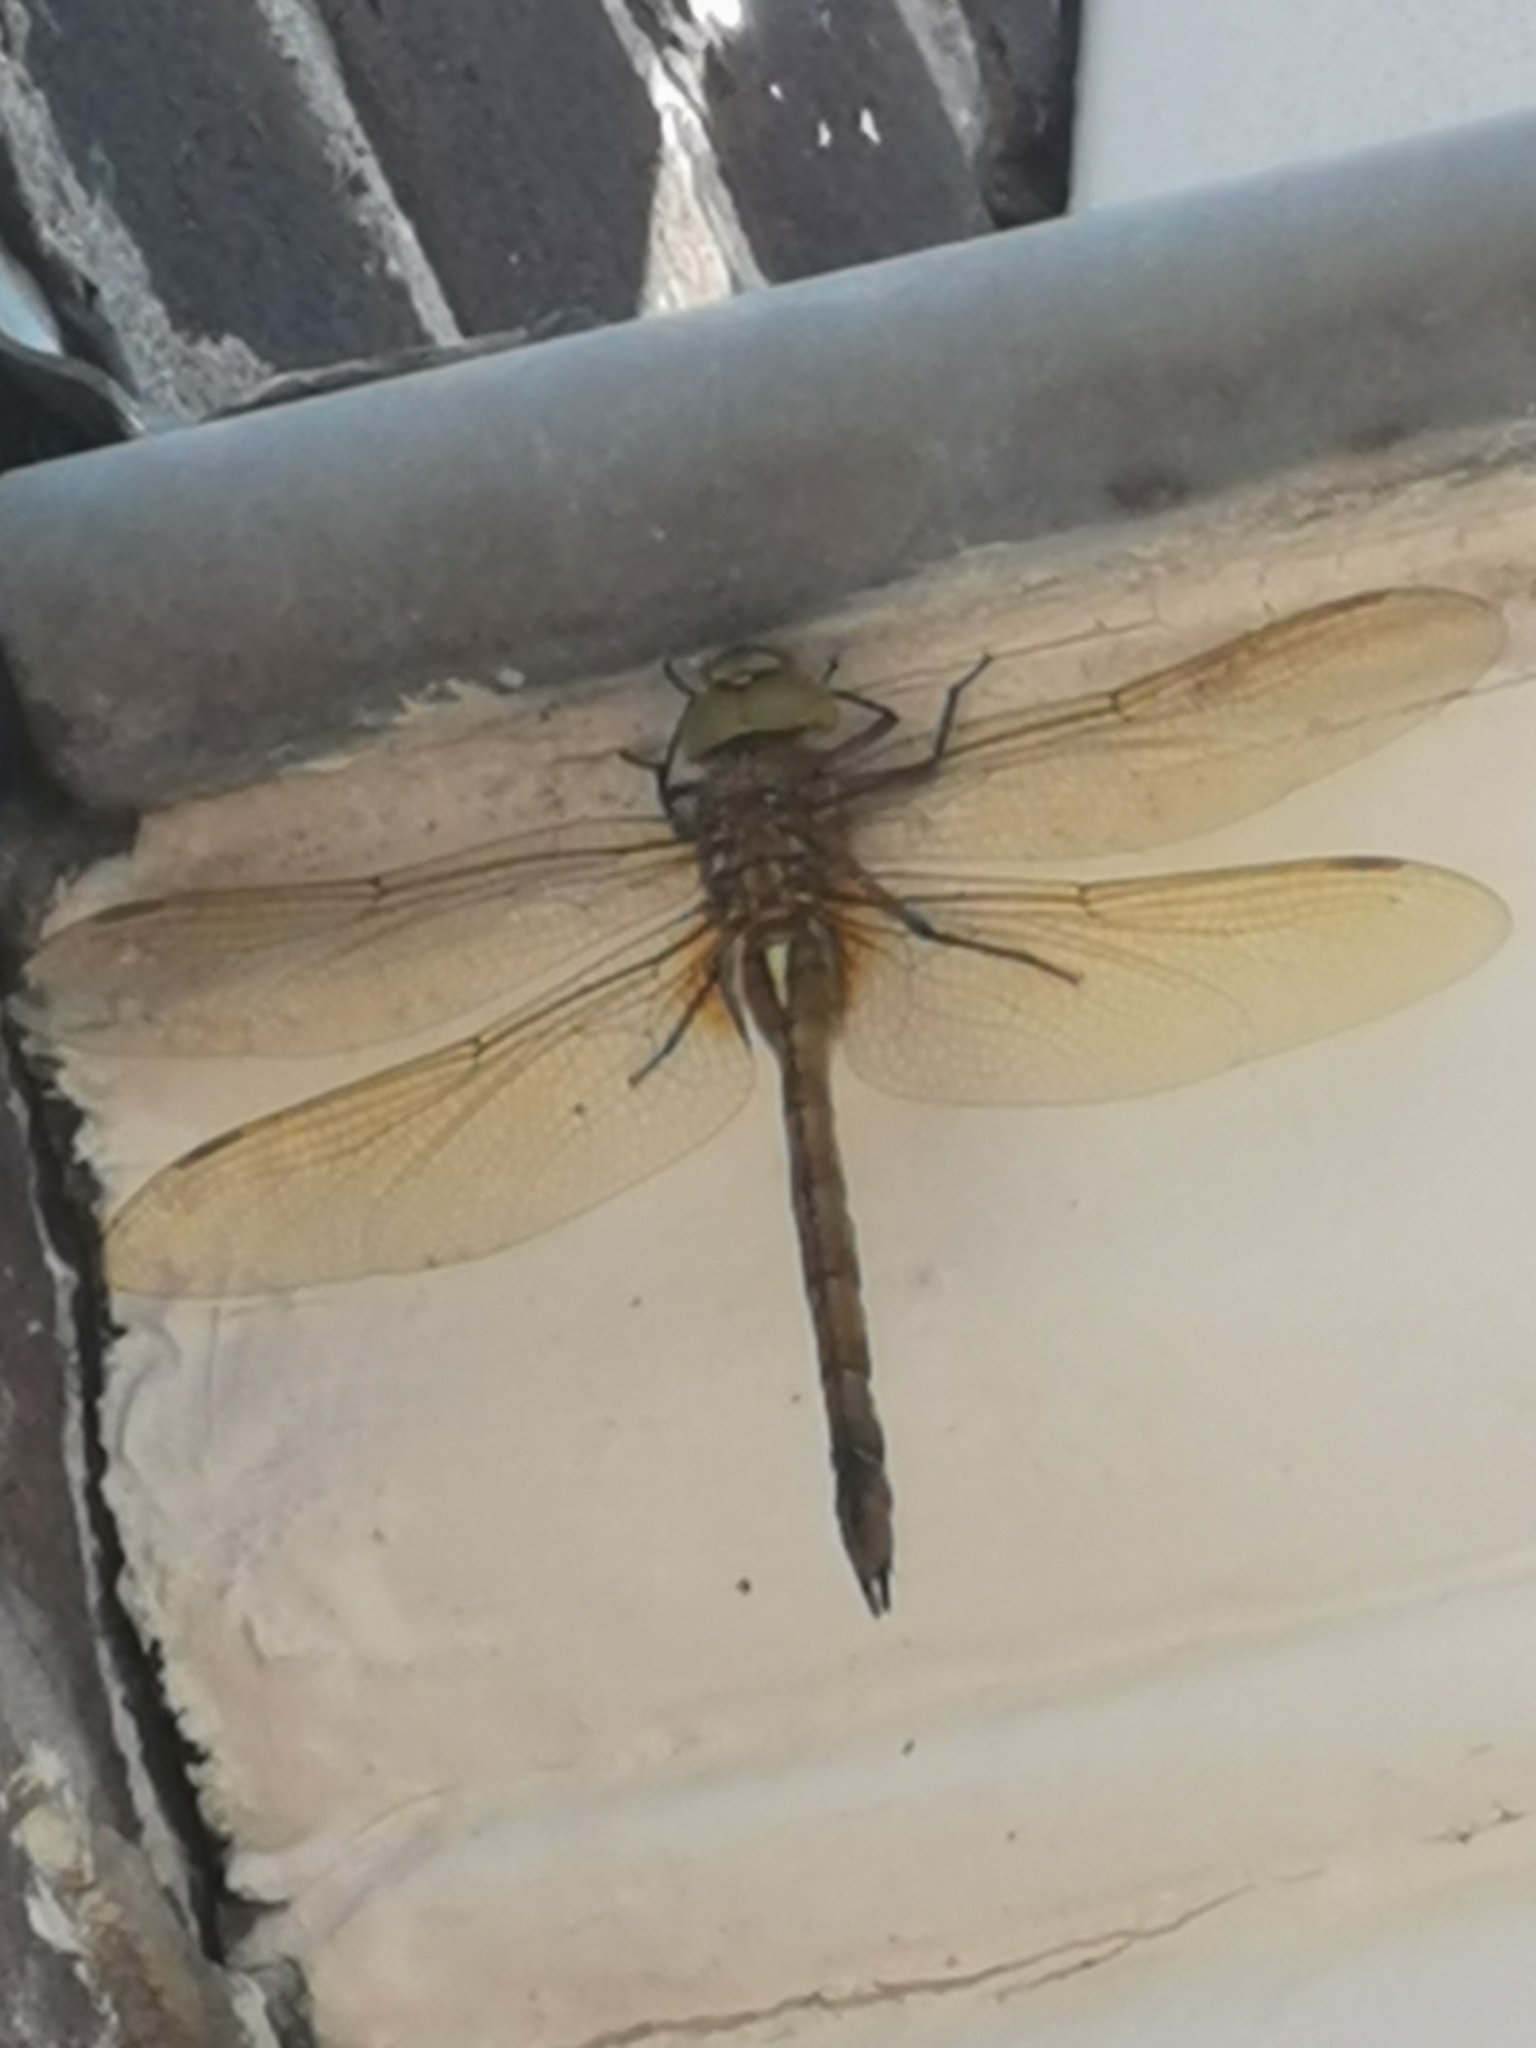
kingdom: Animalia
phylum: Arthropoda
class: Insecta
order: Odonata
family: Aeshnidae
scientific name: Aeshnidae
